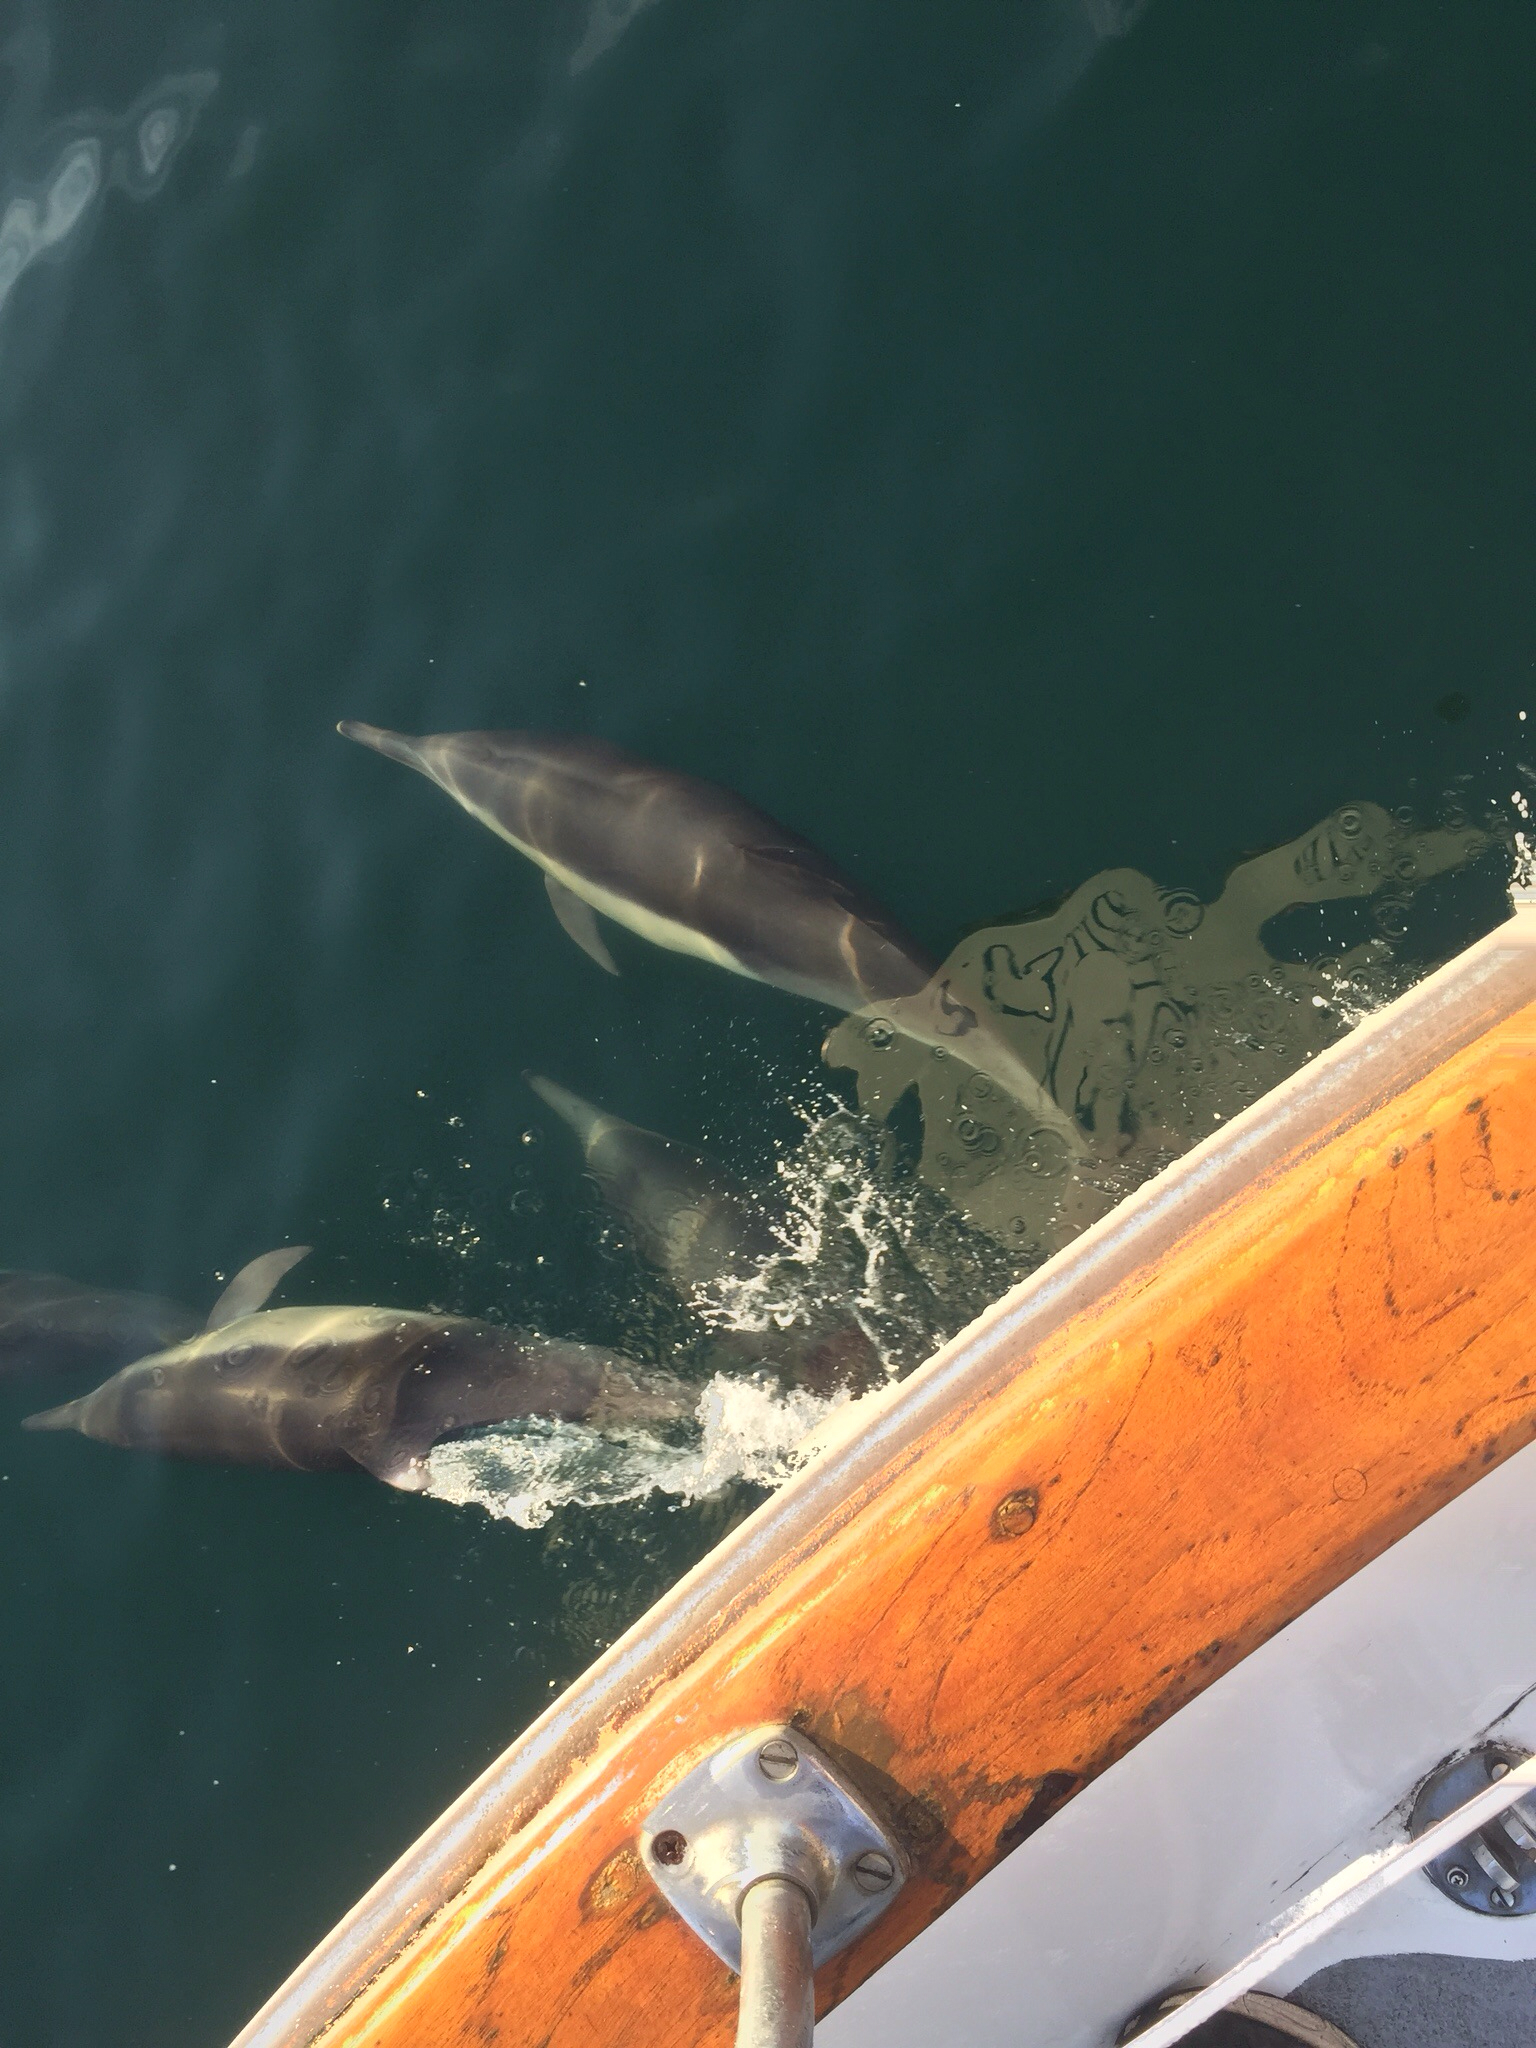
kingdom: Animalia
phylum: Chordata
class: Mammalia
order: Cetacea
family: Delphinidae
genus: Delphinus
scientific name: Delphinus delphis
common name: Common dolphin
